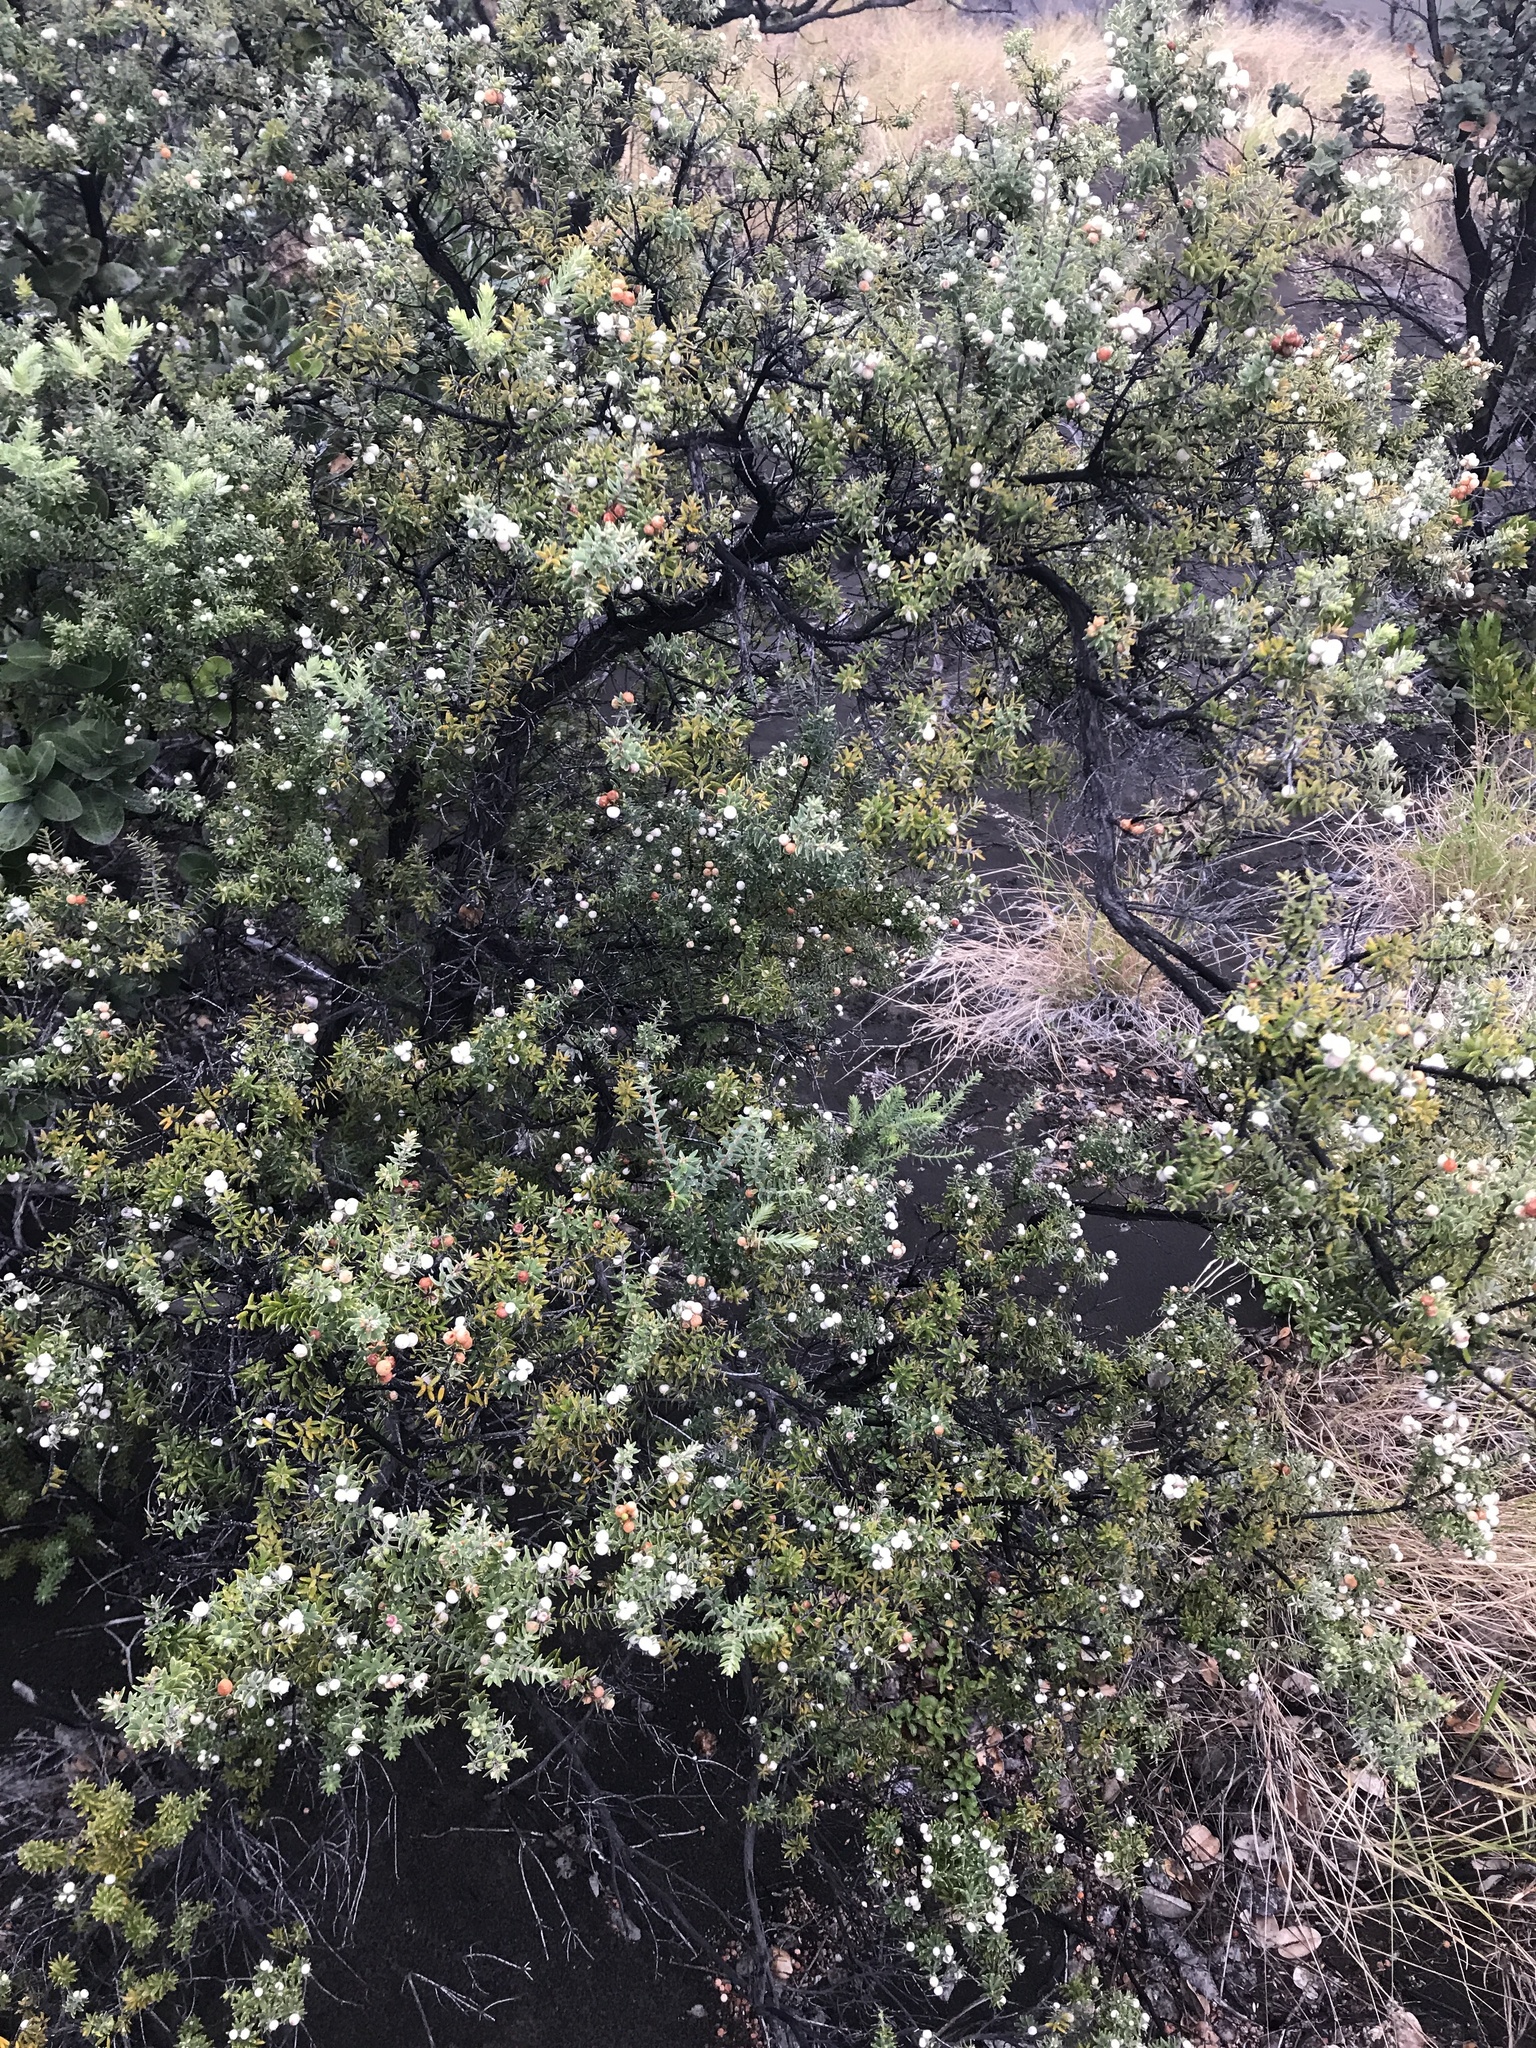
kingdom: Plantae
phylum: Tracheophyta
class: Magnoliopsida
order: Ericales
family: Ericaceae
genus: Leptecophylla
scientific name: Leptecophylla tameiameiae
